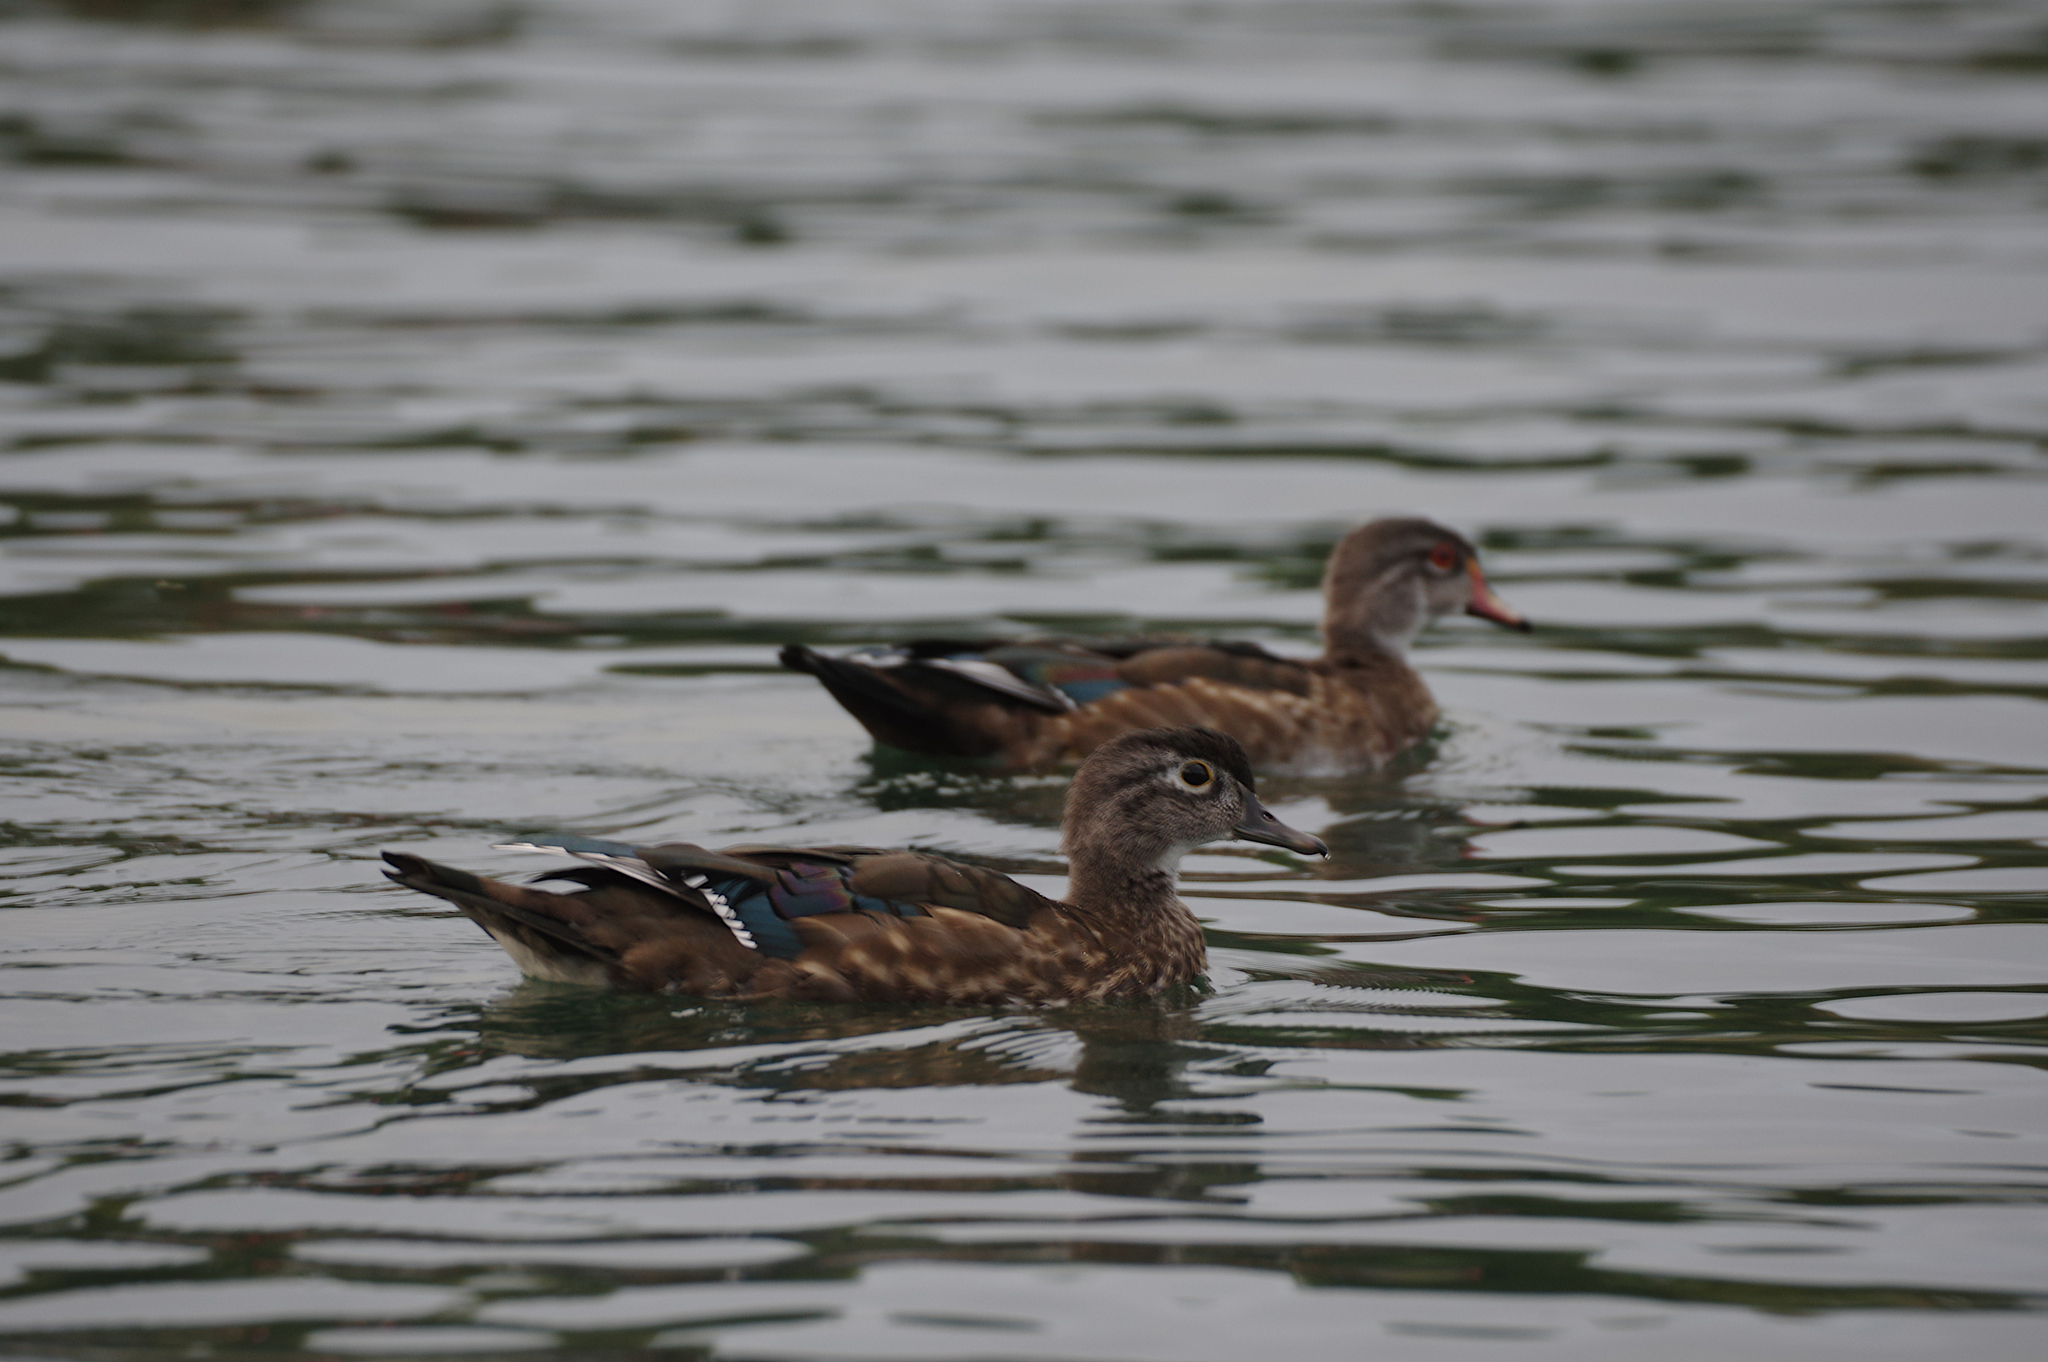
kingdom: Animalia
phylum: Chordata
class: Aves
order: Anseriformes
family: Anatidae
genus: Aix
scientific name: Aix sponsa
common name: Wood duck
